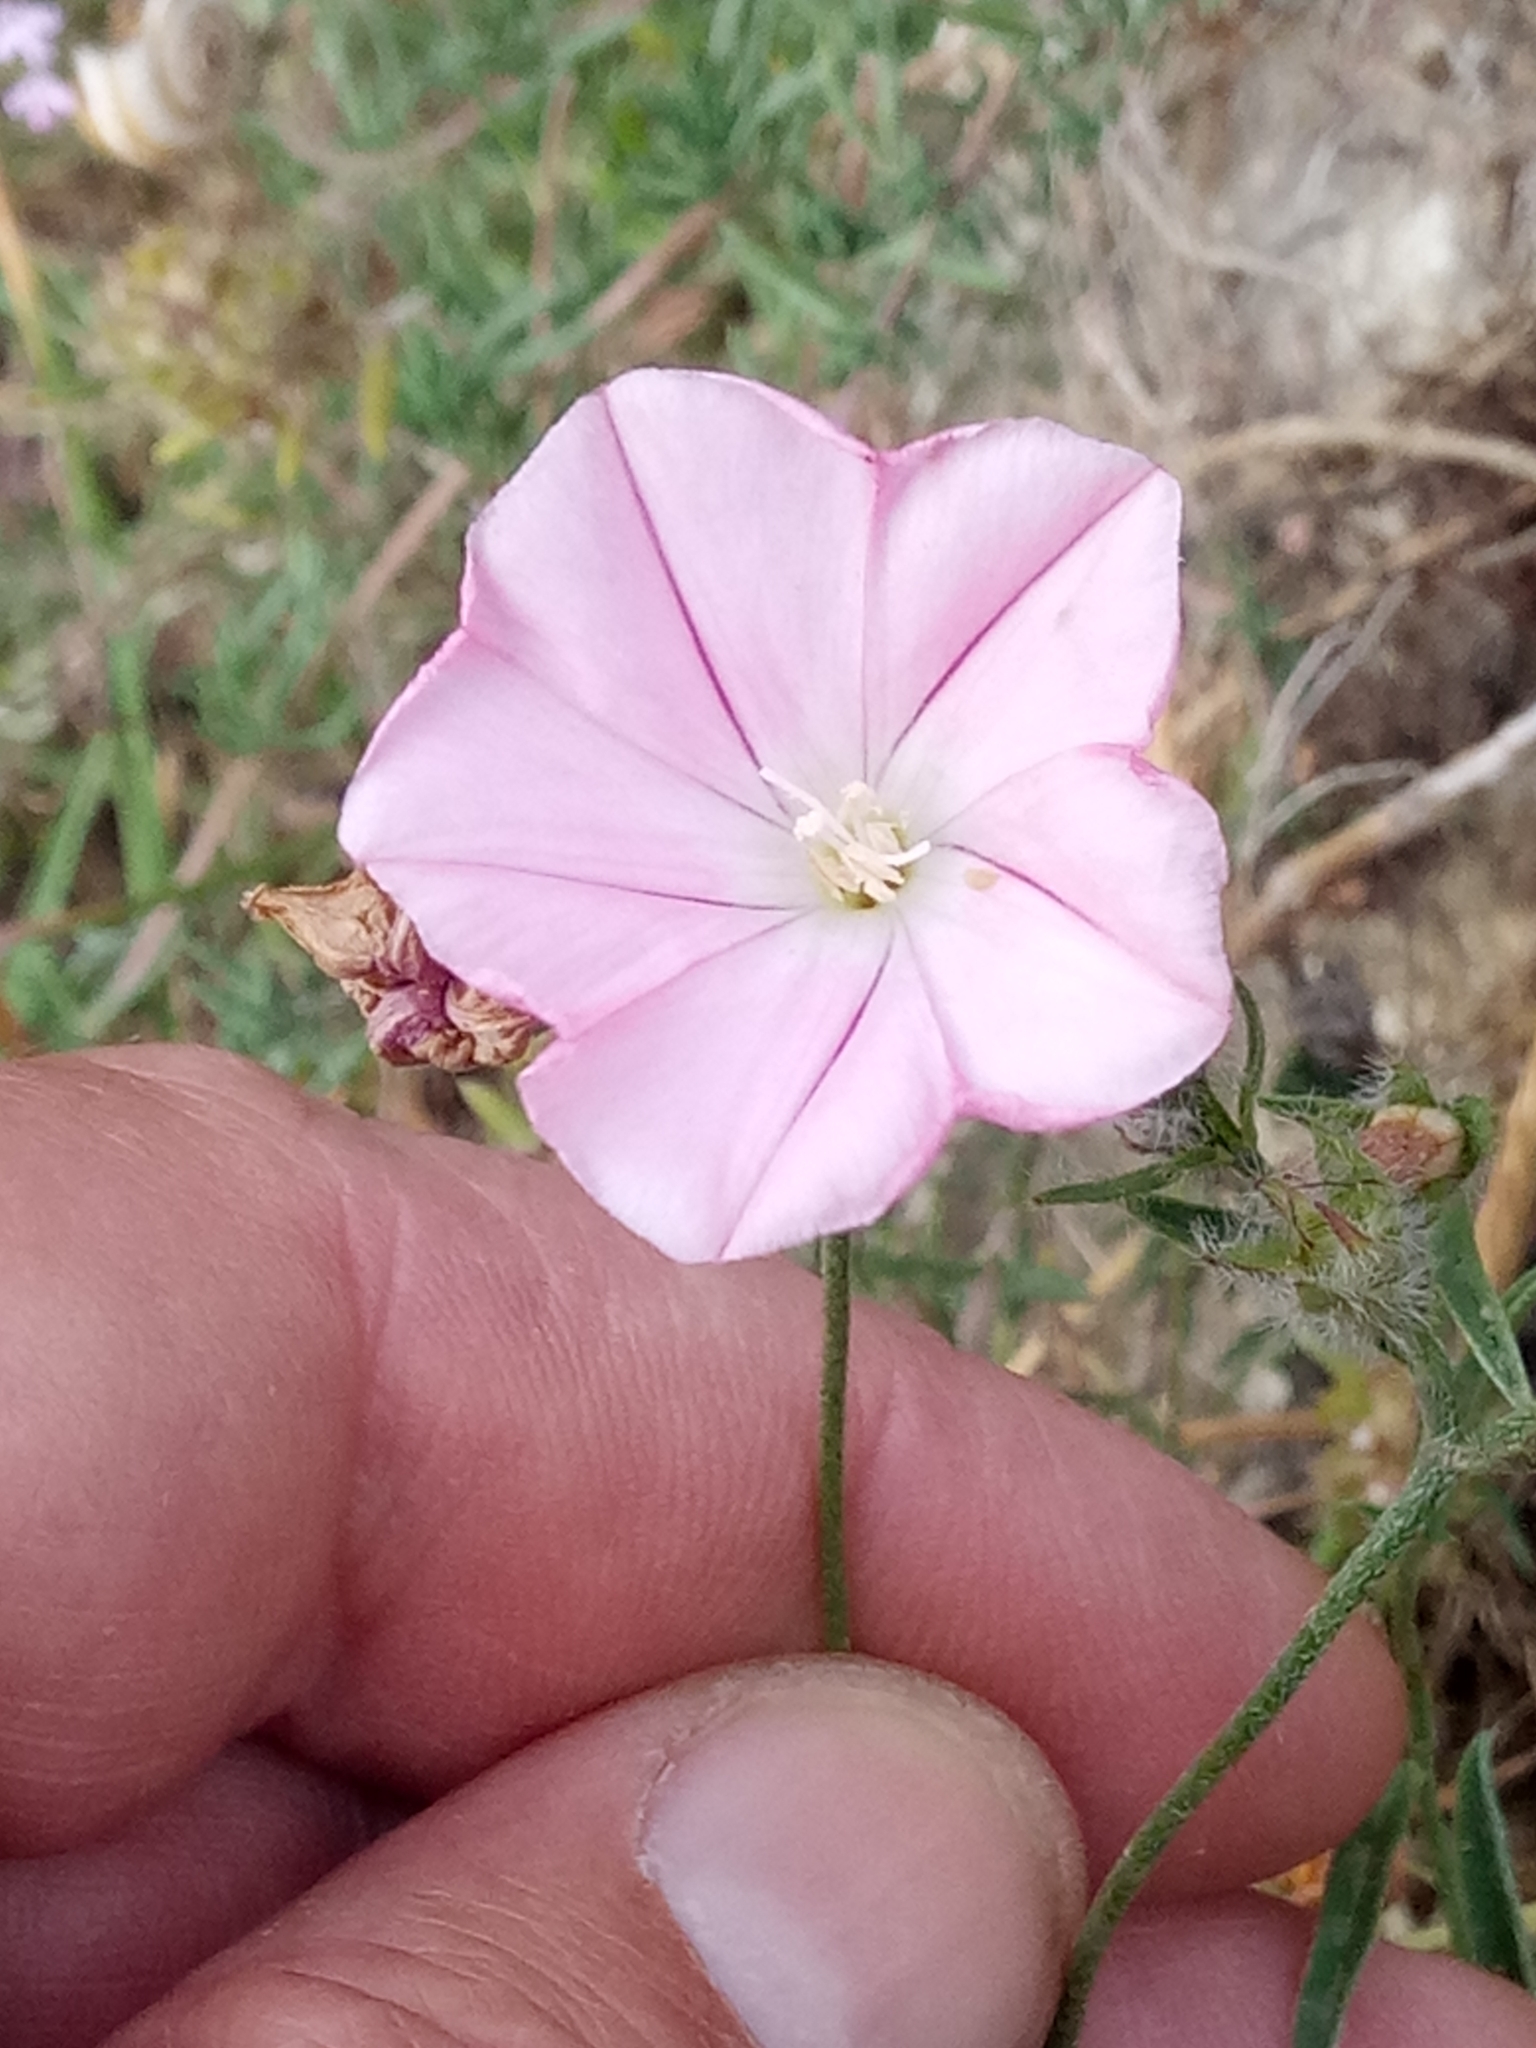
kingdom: Plantae
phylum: Tracheophyta
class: Magnoliopsida
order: Solanales
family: Convolvulaceae
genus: Convolvulus
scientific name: Convolvulus cantabrica
